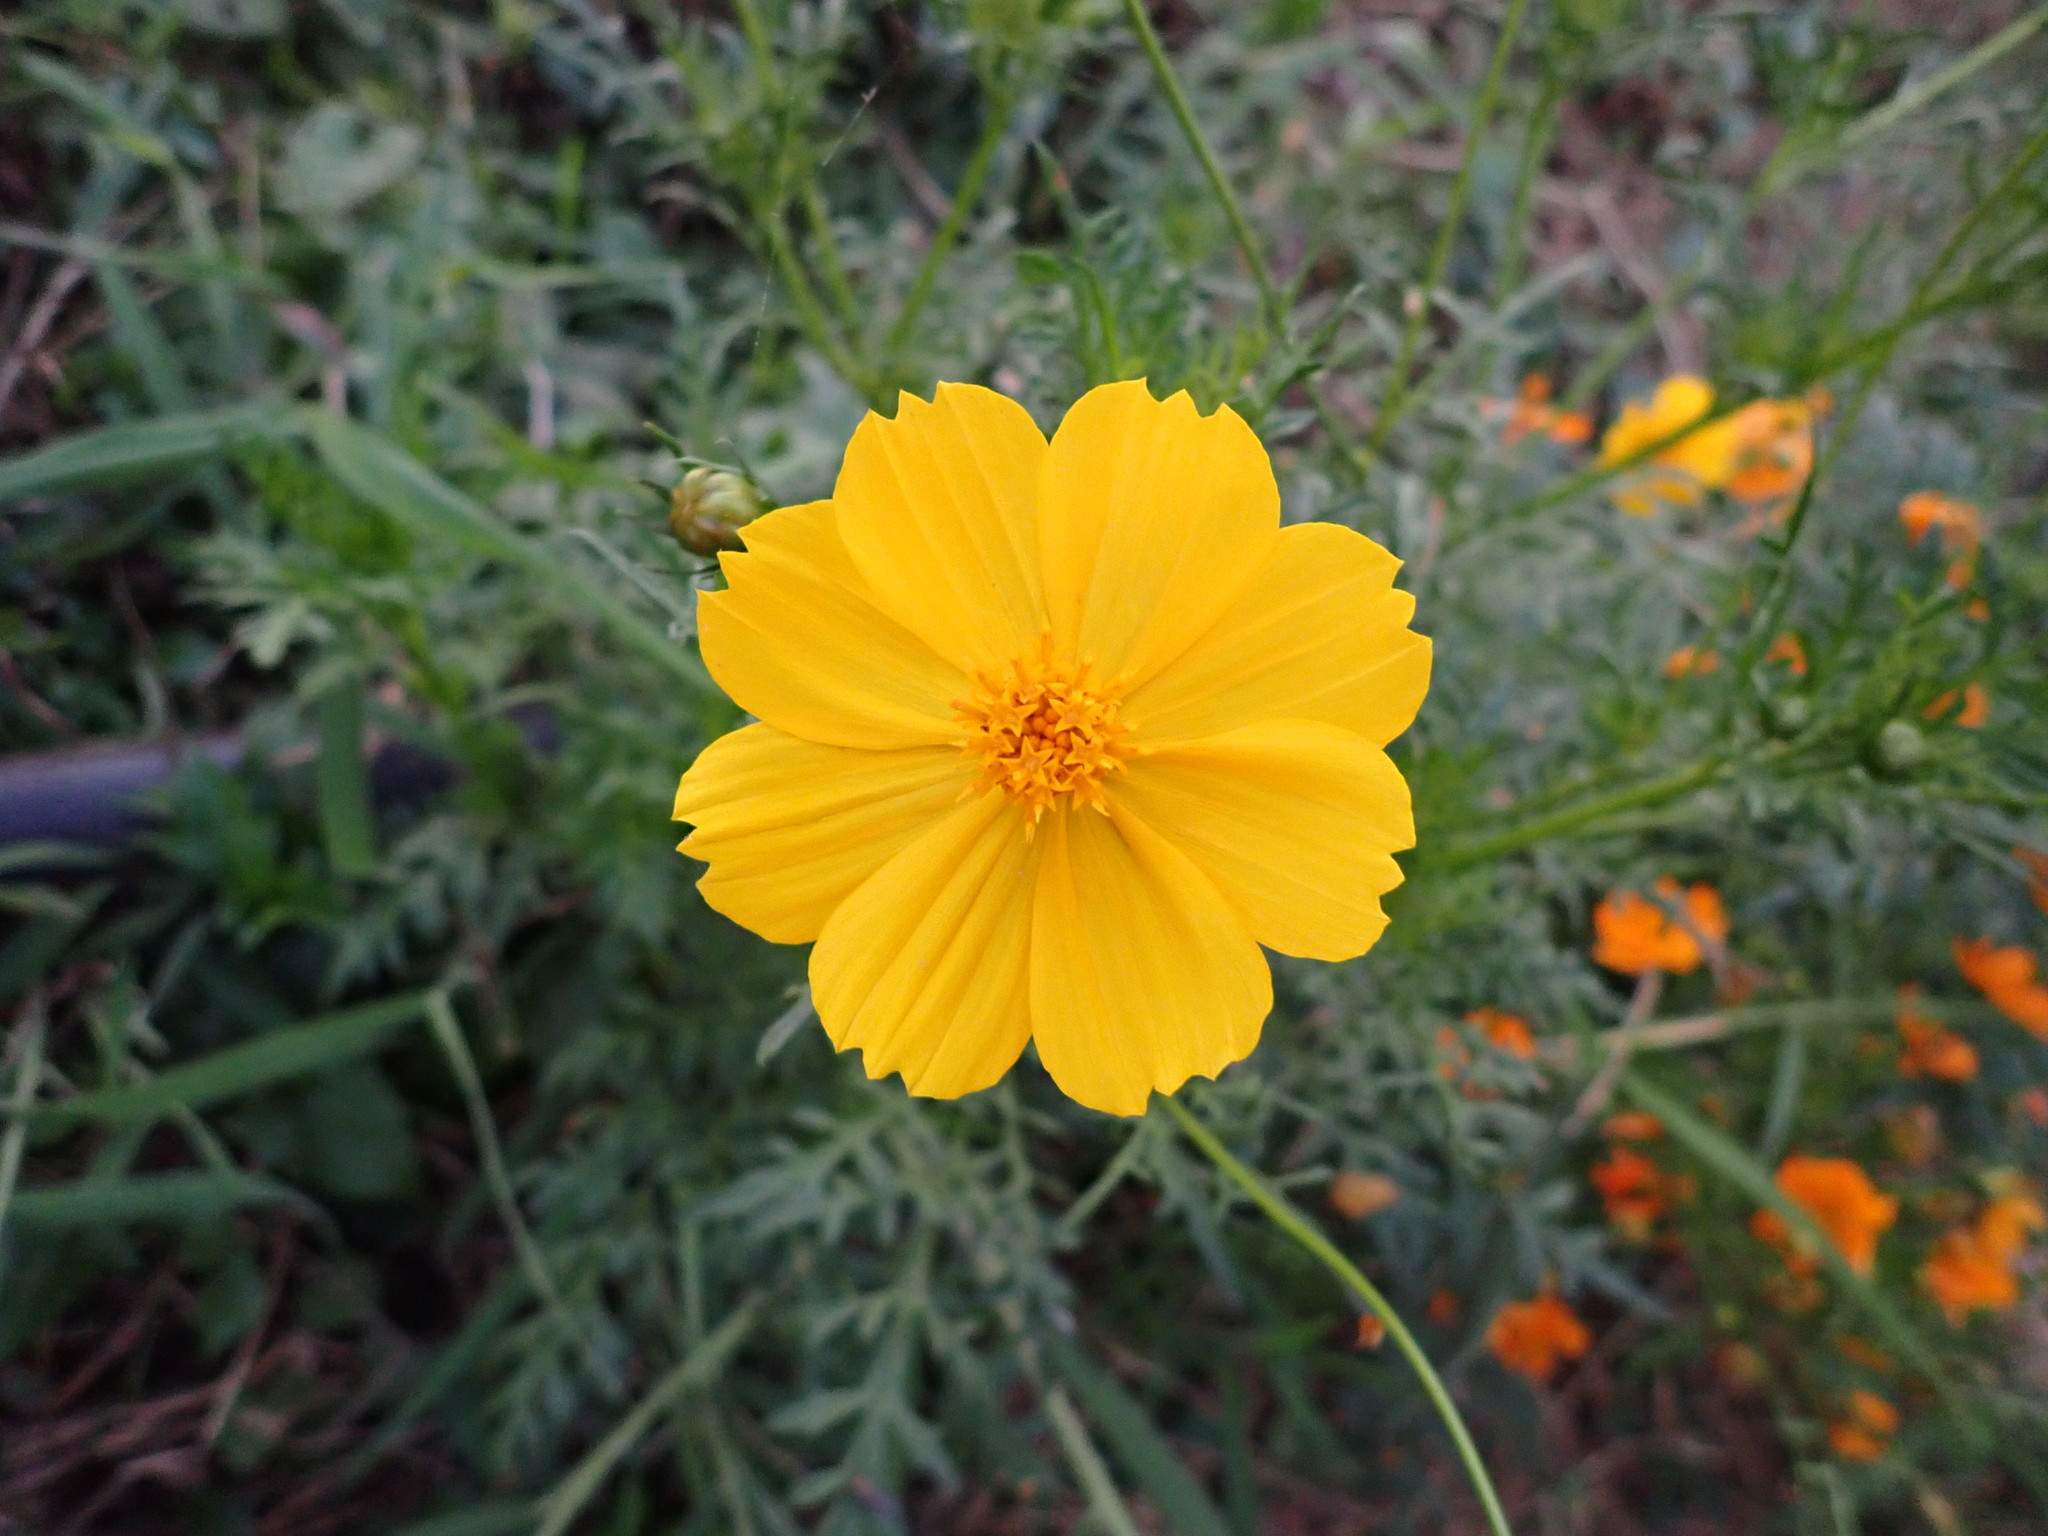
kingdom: Plantae
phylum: Tracheophyta
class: Magnoliopsida
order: Asterales
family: Asteraceae
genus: Cosmos
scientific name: Cosmos sulphureus
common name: Sulphur cosmos
